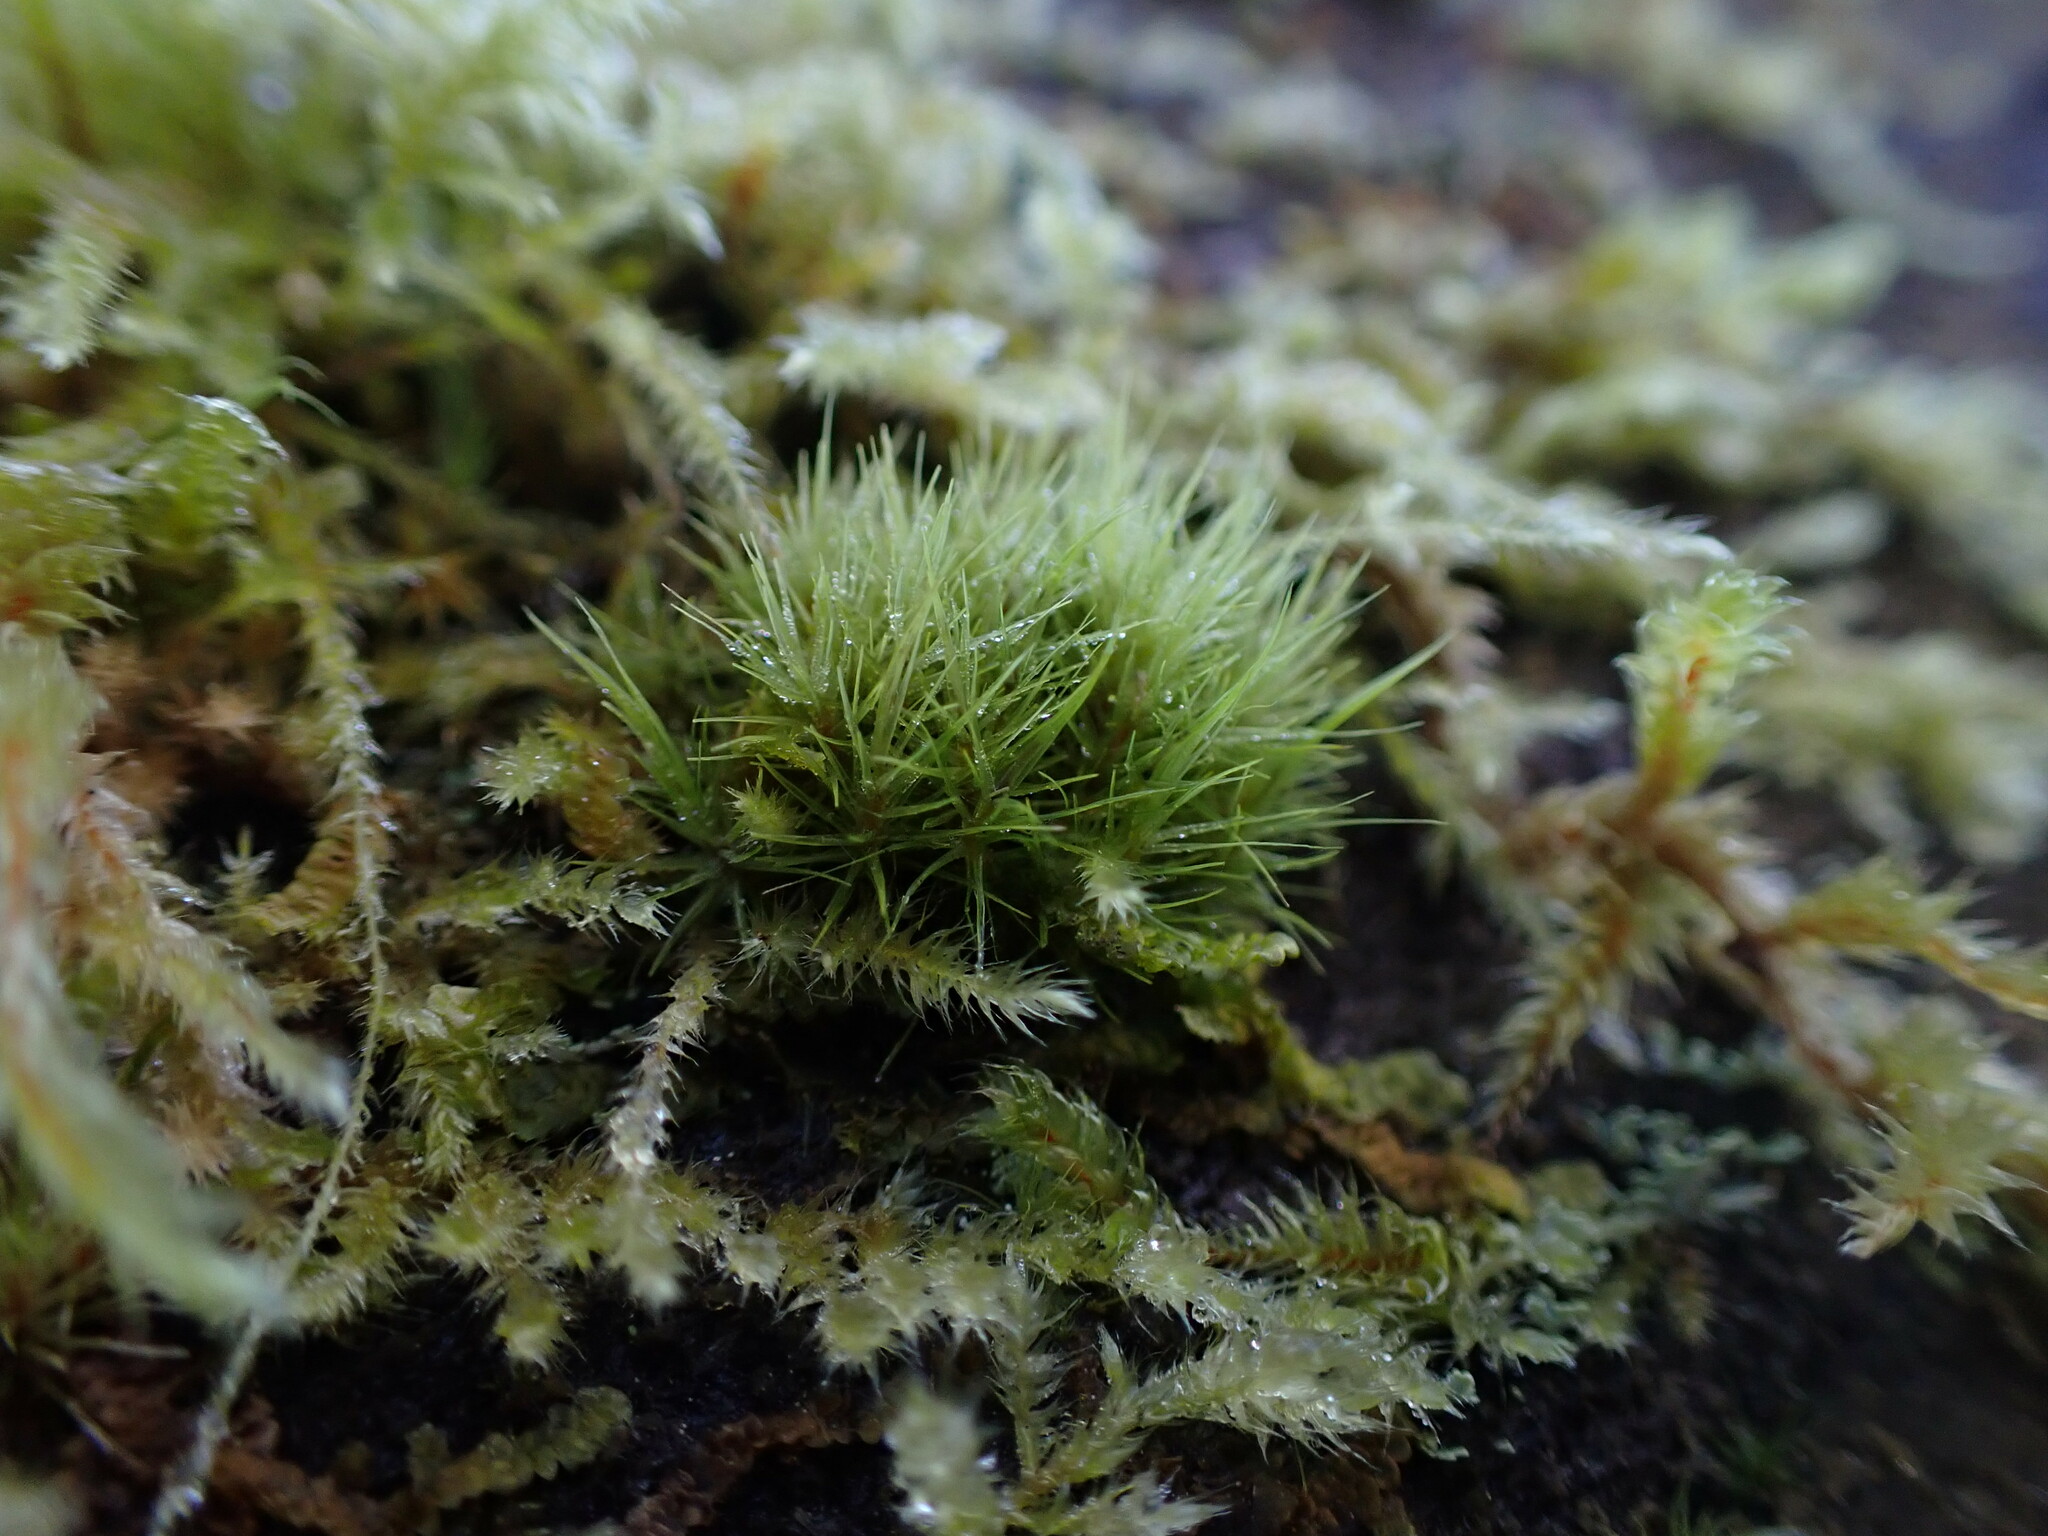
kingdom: Plantae
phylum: Bryophyta
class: Bryopsida
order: Dicranales
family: Dicranaceae
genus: Orthodicranum
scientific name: Orthodicranum tauricum
